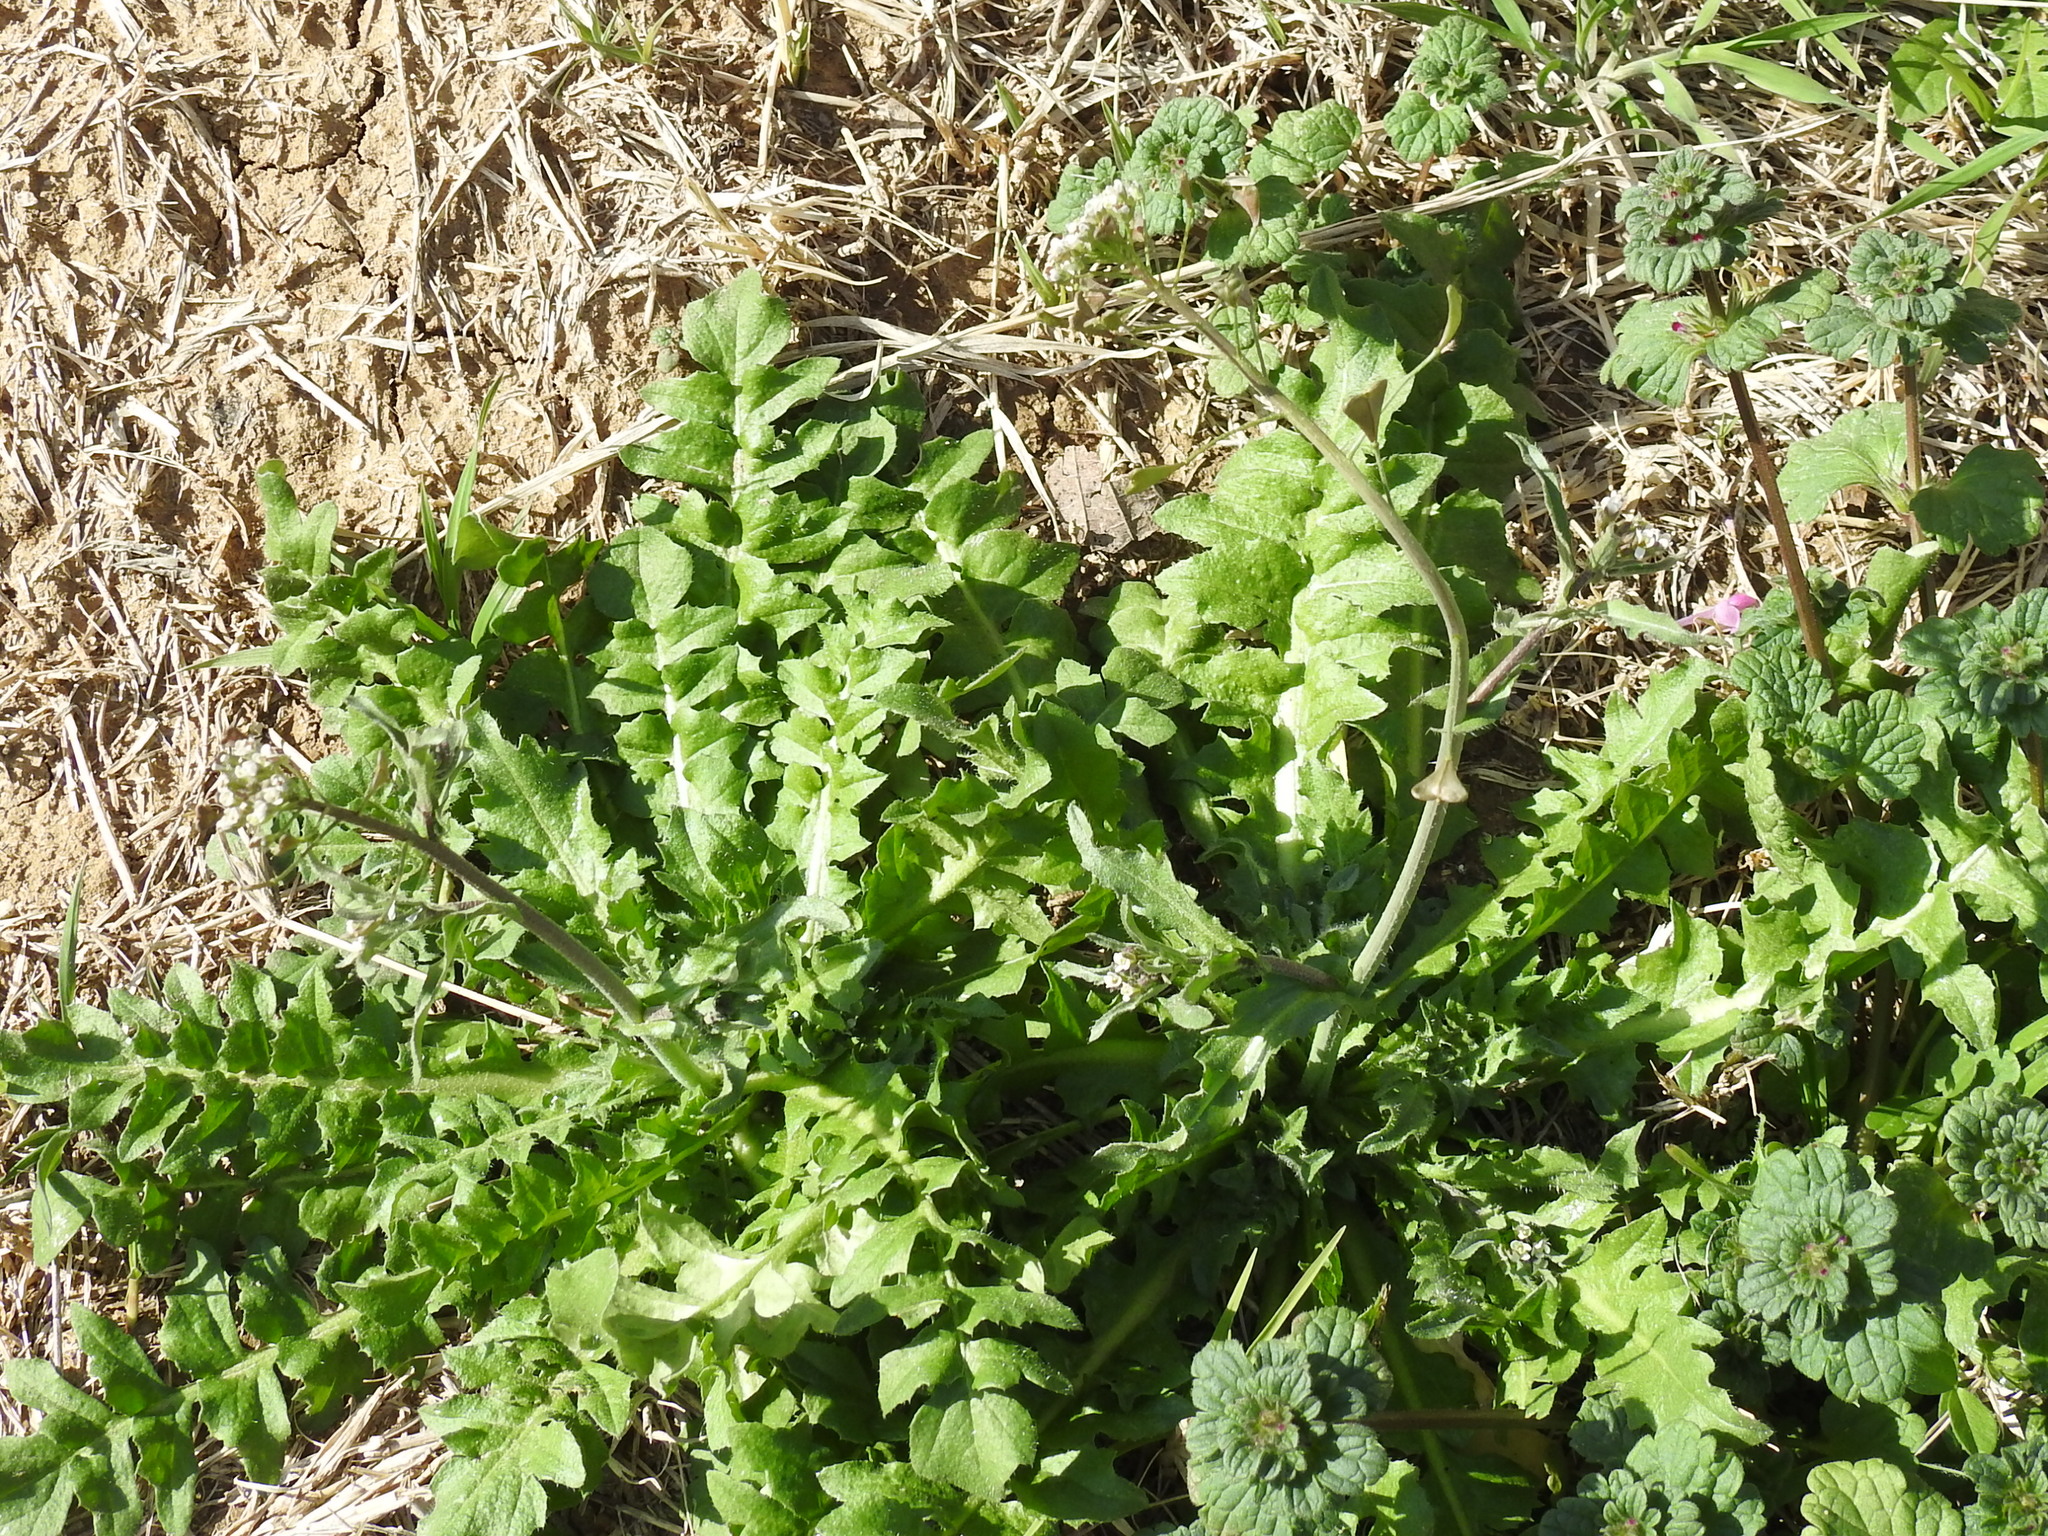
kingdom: Plantae
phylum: Tracheophyta
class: Magnoliopsida
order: Brassicales
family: Brassicaceae
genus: Capsella
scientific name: Capsella bursa-pastoris
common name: Shepherd's purse
